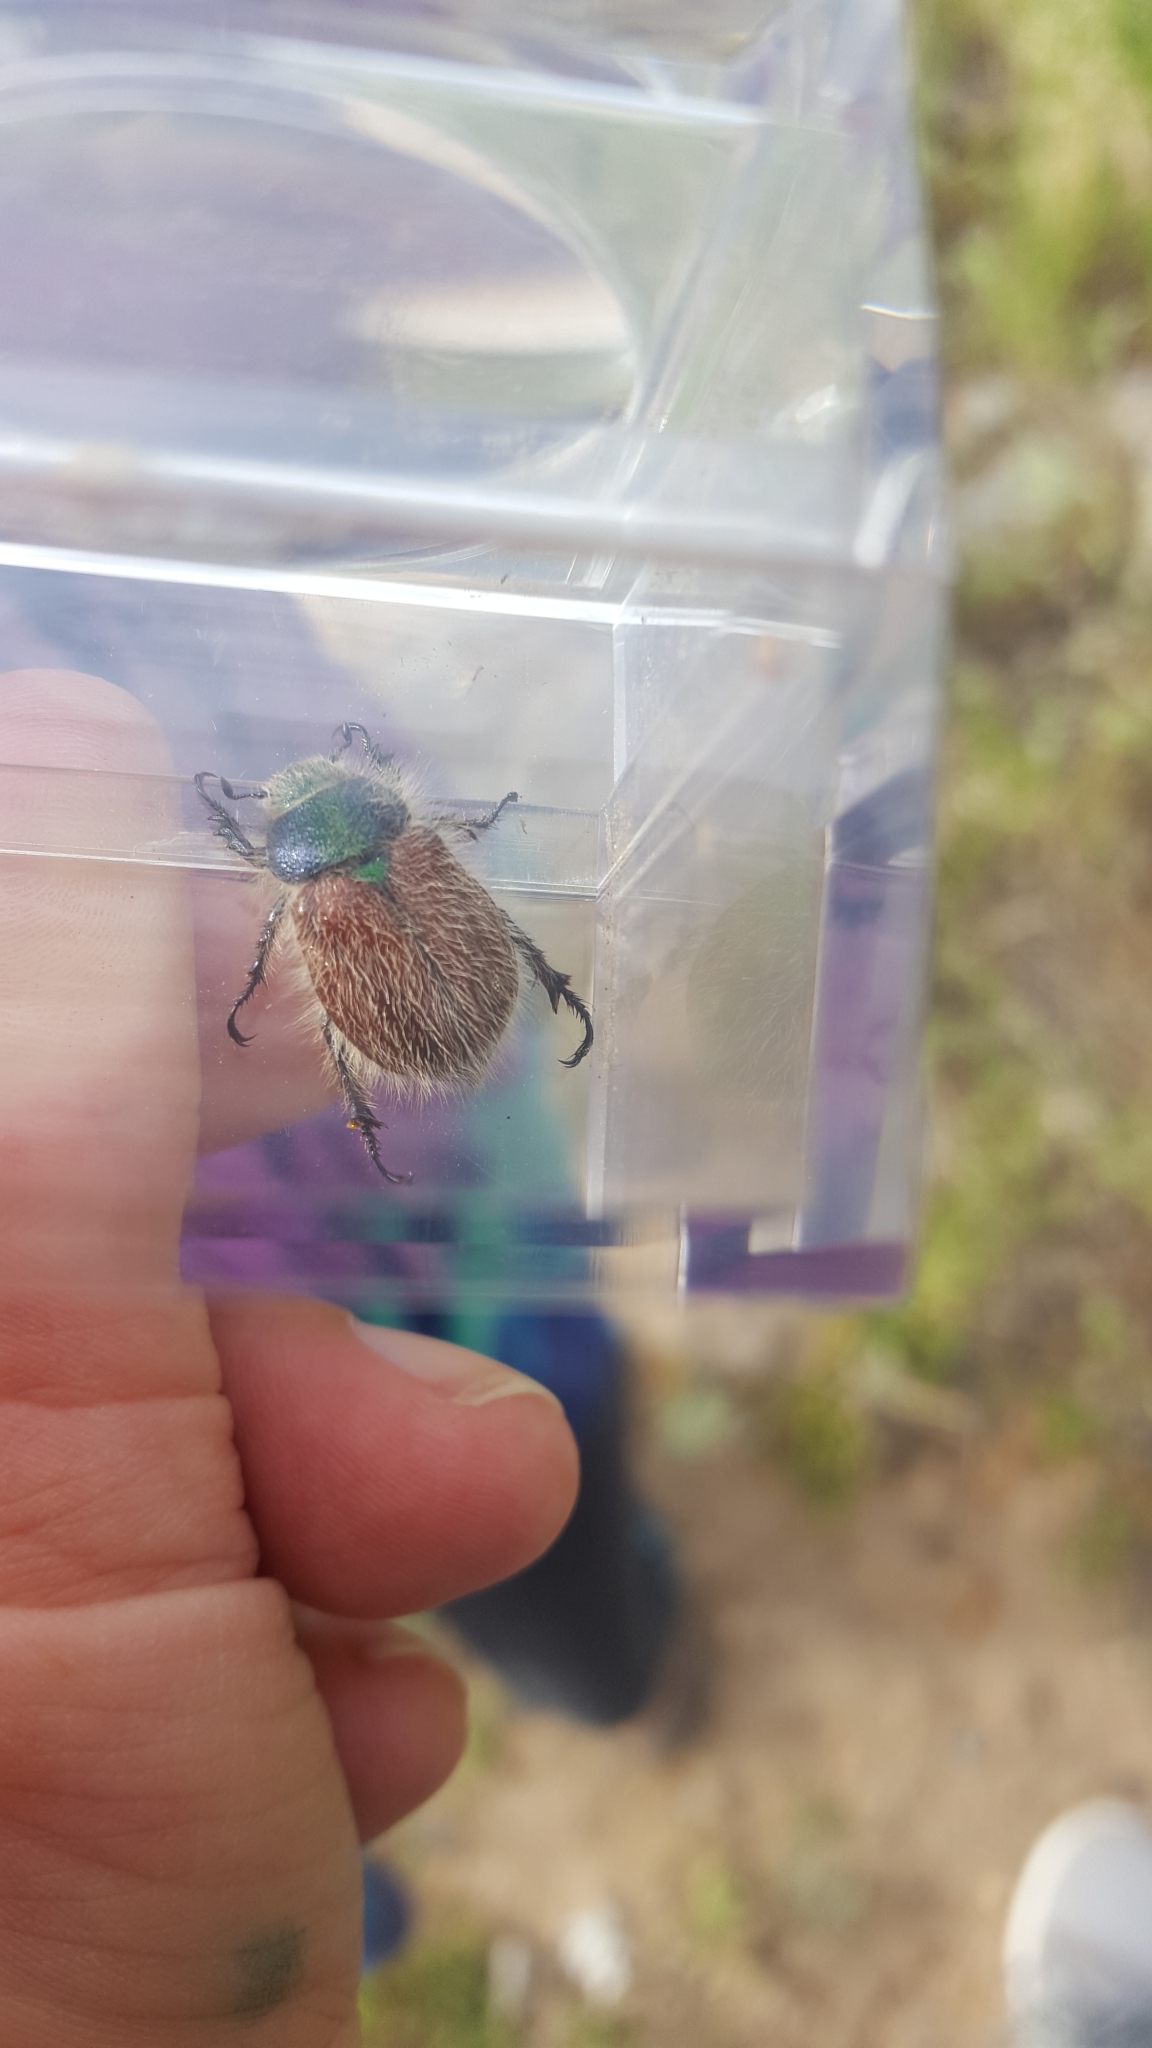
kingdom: Animalia
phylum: Arthropoda
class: Insecta
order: Coleoptera
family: Scarabaeidae
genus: Paracotalpa
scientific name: Paracotalpa granicollis
